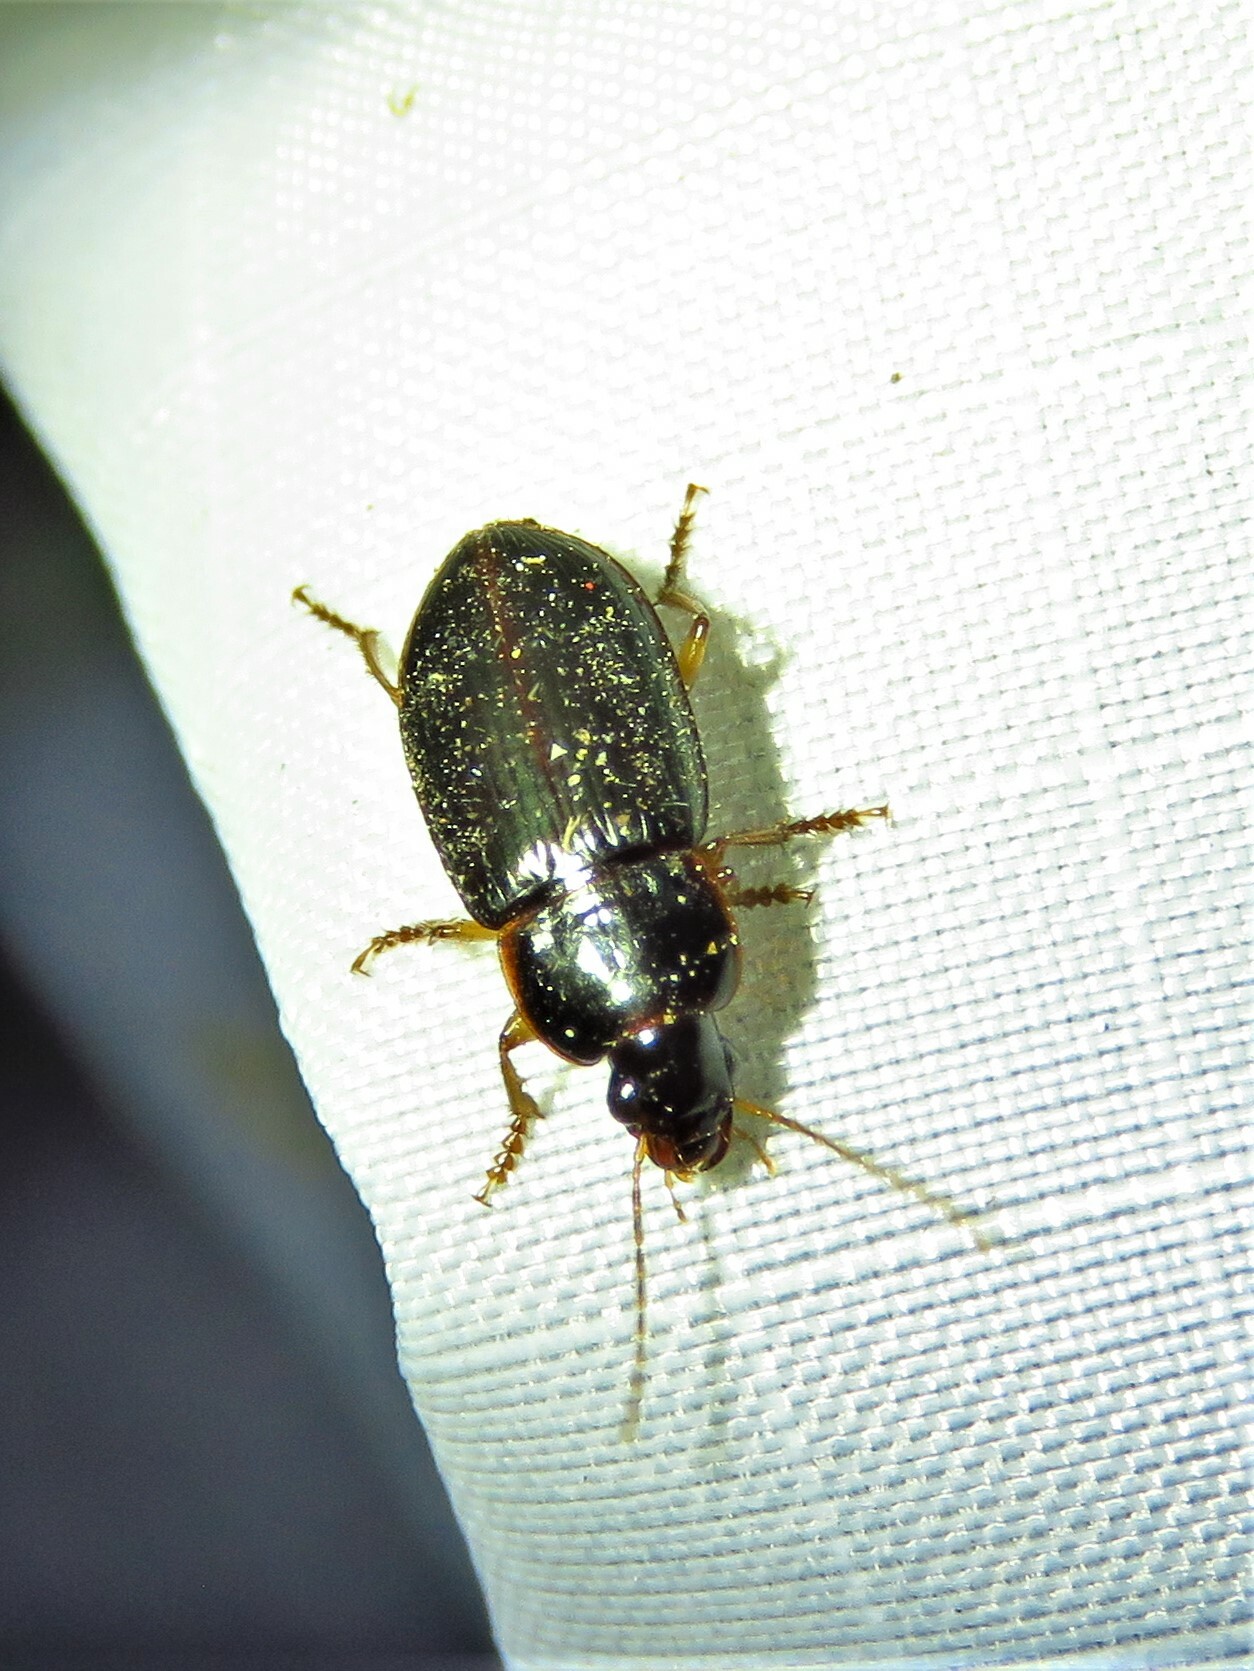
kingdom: Animalia
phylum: Arthropoda
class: Insecta
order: Coleoptera
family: Carabidae
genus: Notiobia
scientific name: Notiobia terminata
